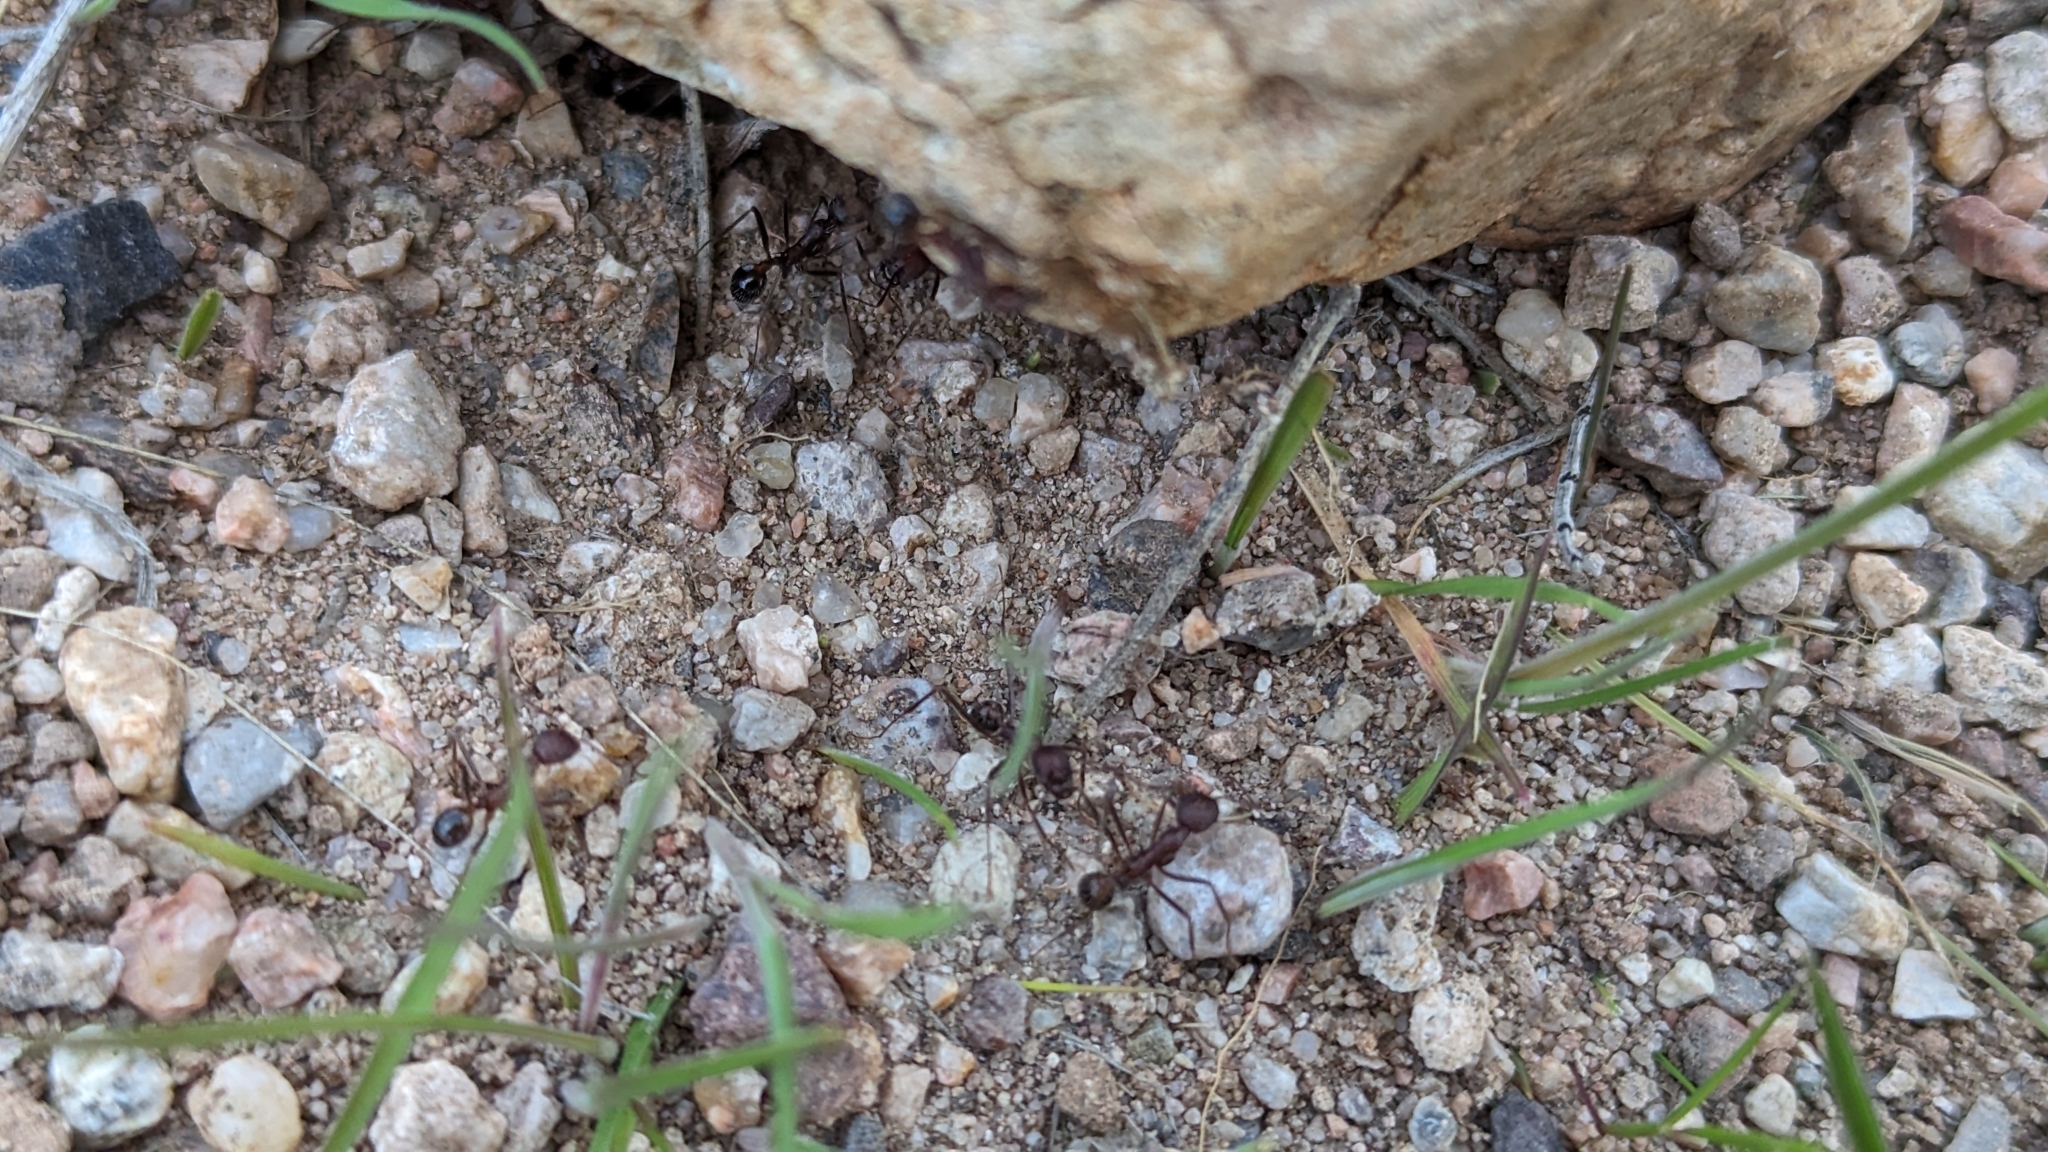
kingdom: Animalia
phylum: Arthropoda
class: Insecta
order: Hymenoptera
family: Formicidae
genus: Novomessor
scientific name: Novomessor albisetosa
